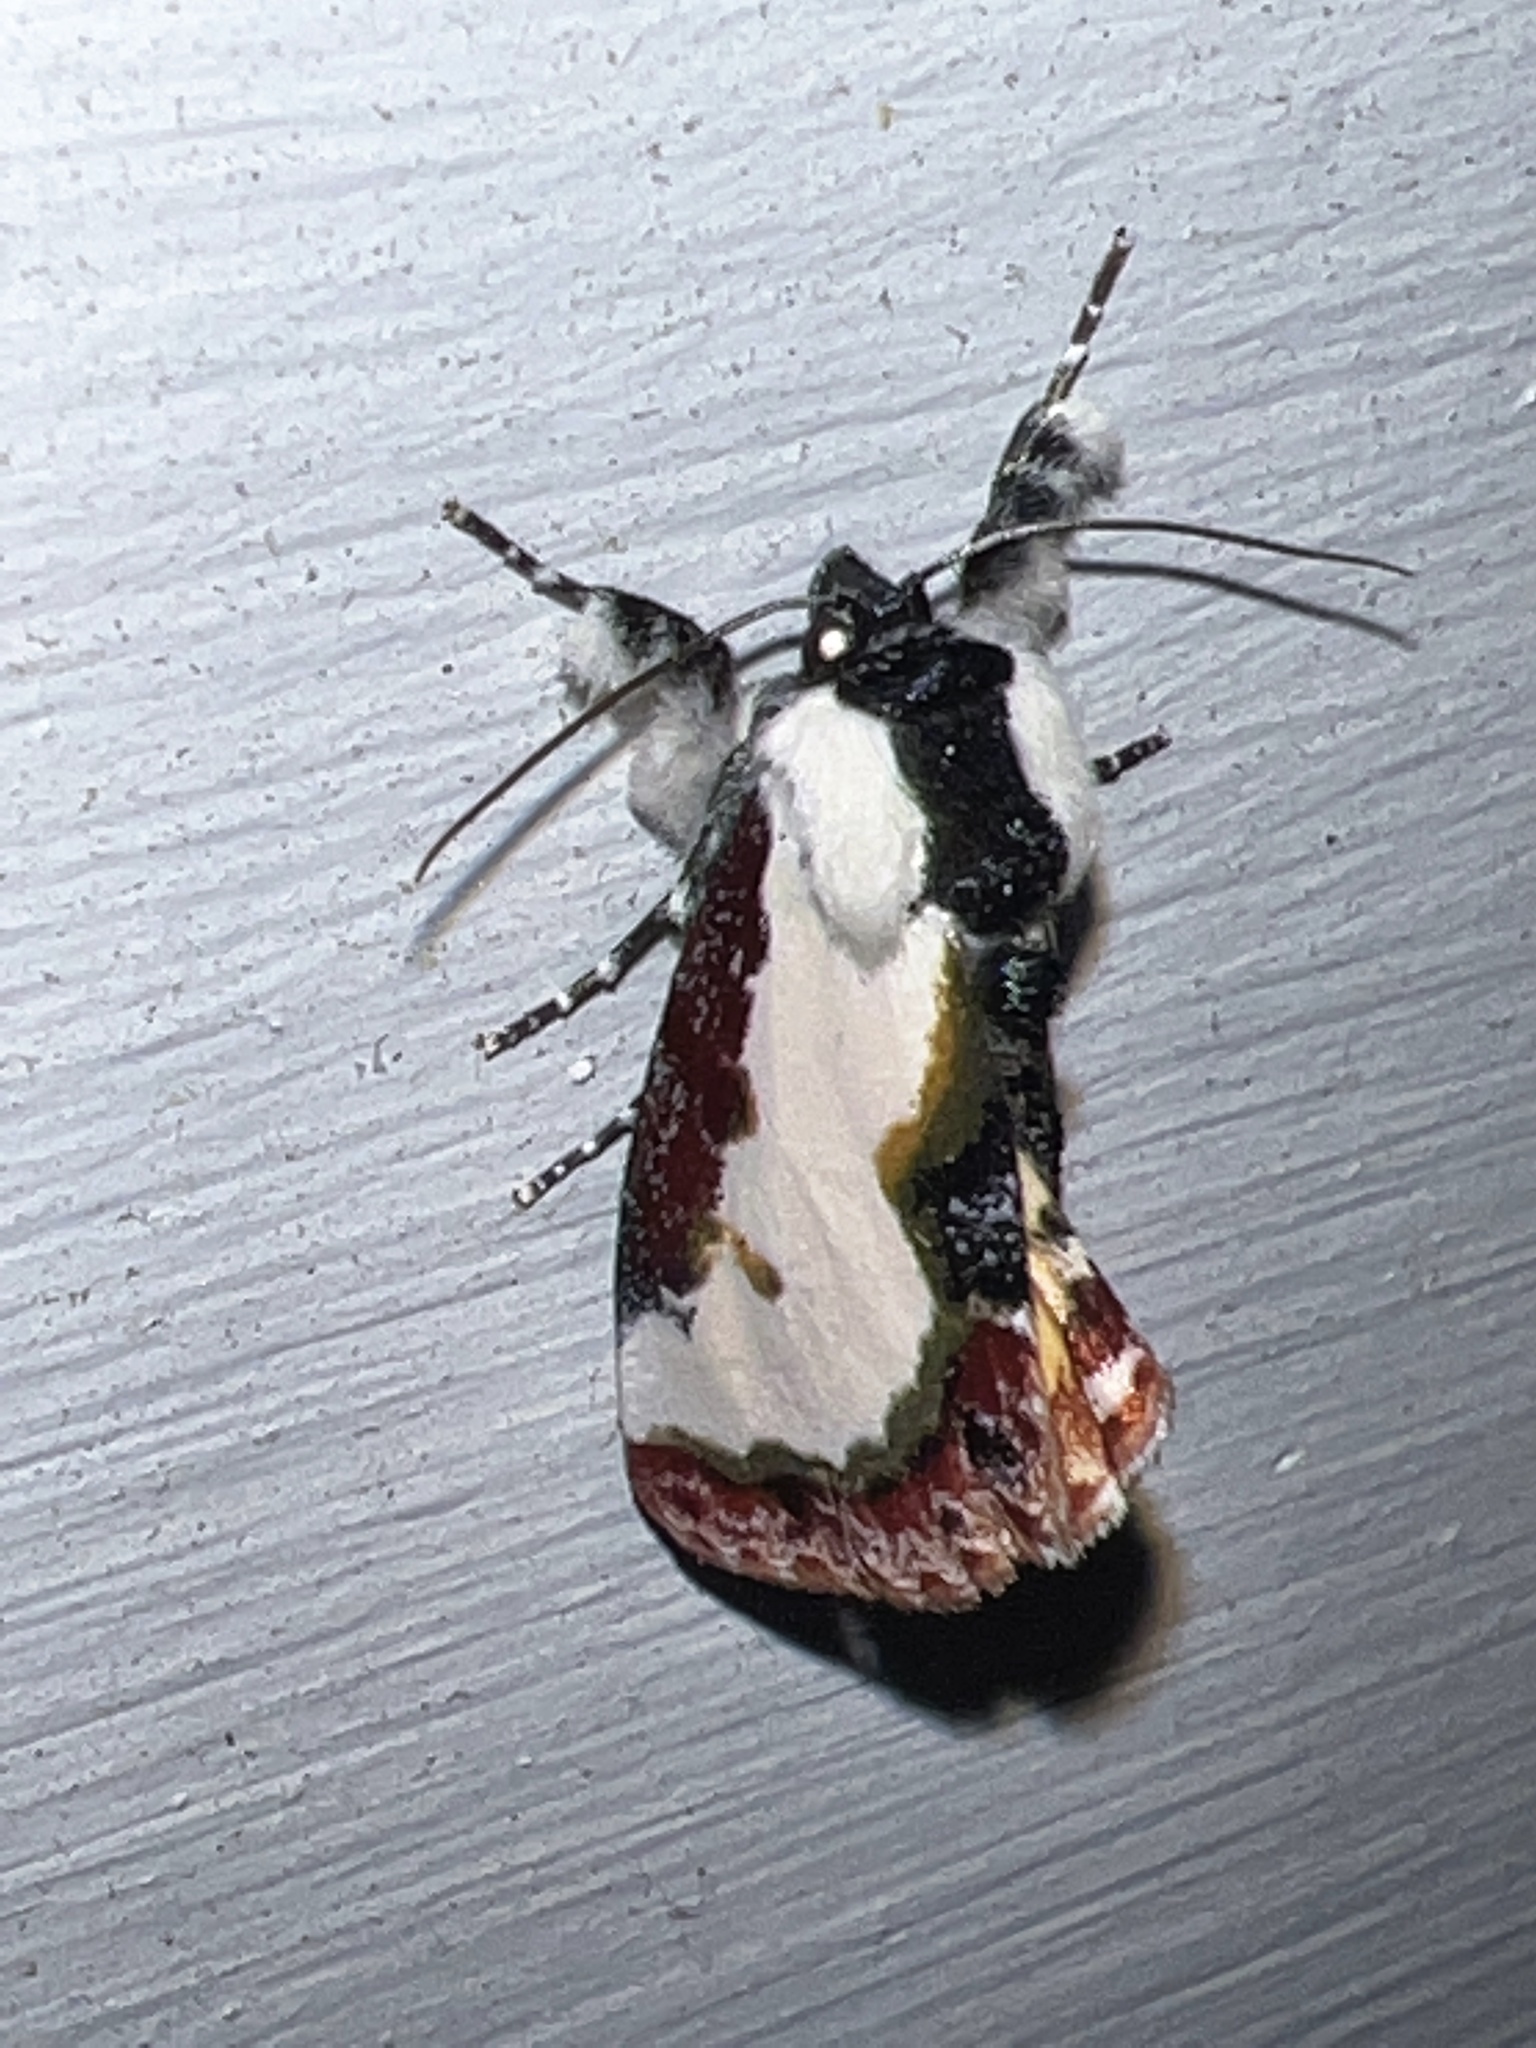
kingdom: Animalia
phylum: Arthropoda
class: Insecta
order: Lepidoptera
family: Noctuidae
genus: Eudryas
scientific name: Eudryas unio
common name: Pearly wood-nymph
